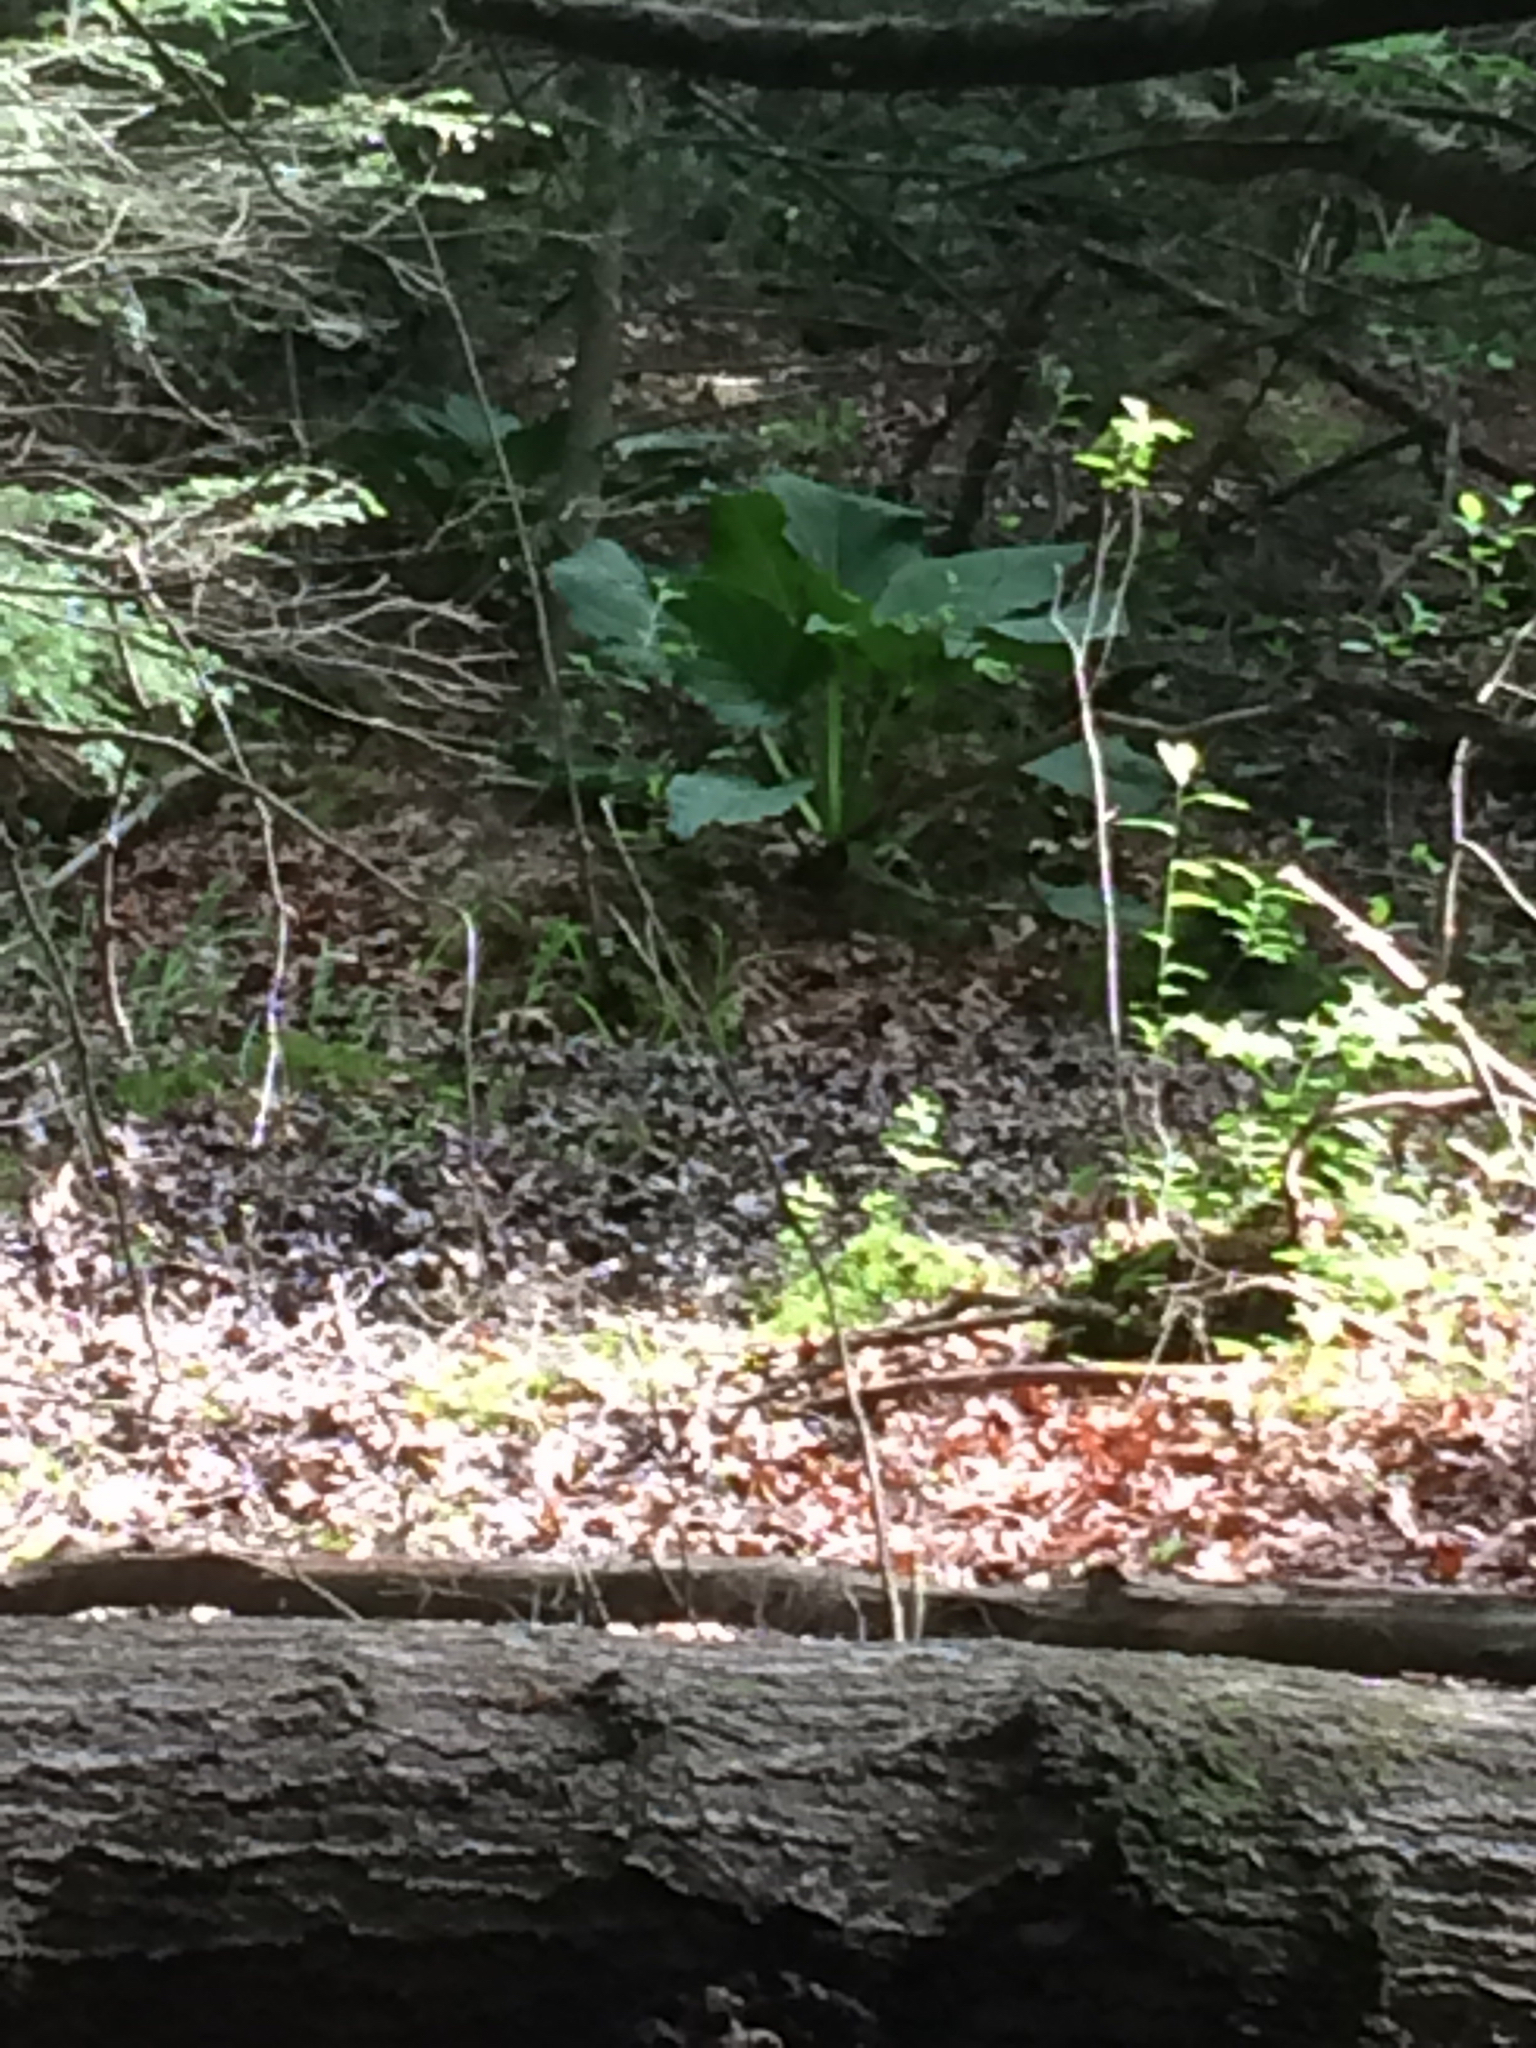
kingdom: Plantae
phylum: Tracheophyta
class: Liliopsida
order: Alismatales
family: Araceae
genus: Symplocarpus
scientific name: Symplocarpus foetidus
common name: Eastern skunk cabbage
